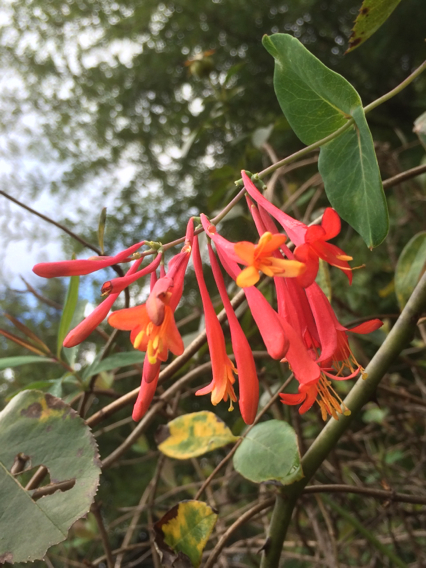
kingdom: Plantae
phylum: Tracheophyta
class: Magnoliopsida
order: Dipsacales
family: Caprifoliaceae
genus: Lonicera
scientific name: Lonicera sempervirens
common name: Coral honeysuckle
